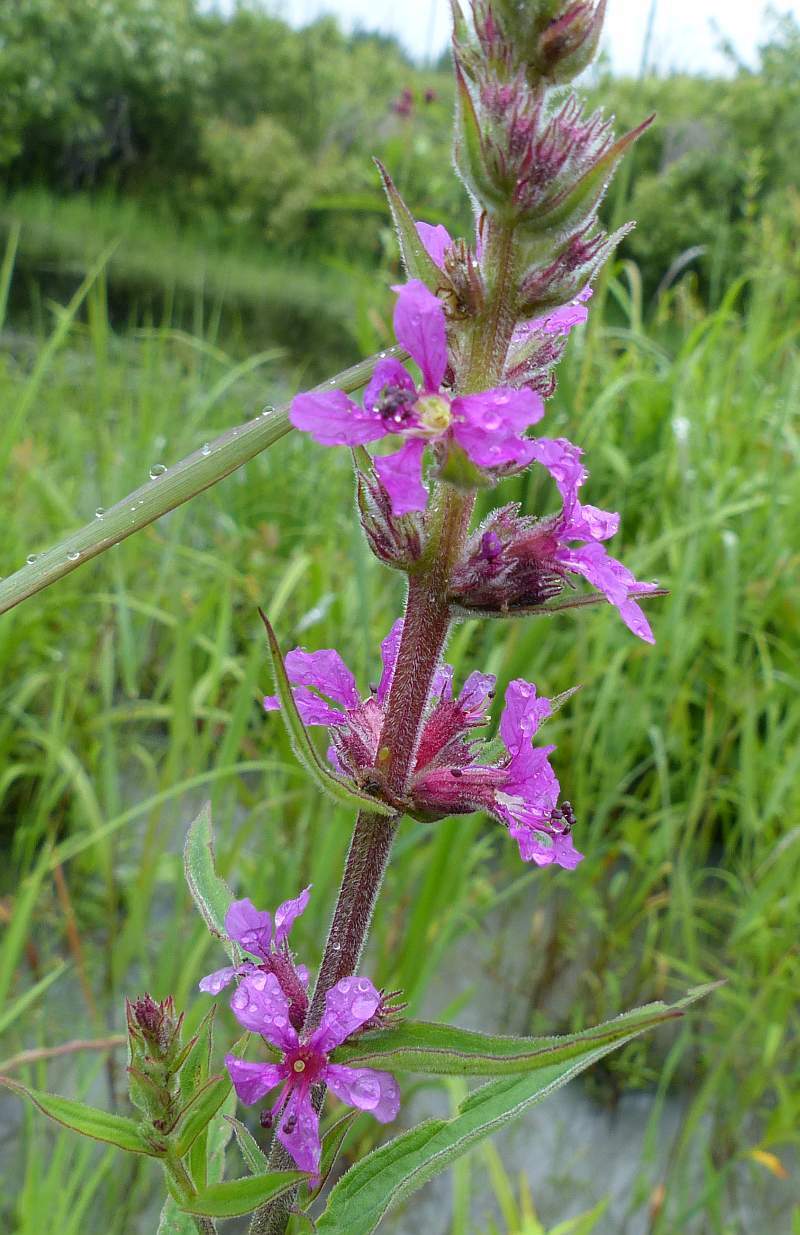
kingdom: Plantae
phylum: Tracheophyta
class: Magnoliopsida
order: Myrtales
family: Lythraceae
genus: Lythrum
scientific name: Lythrum salicaria
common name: Purple loosestrife
